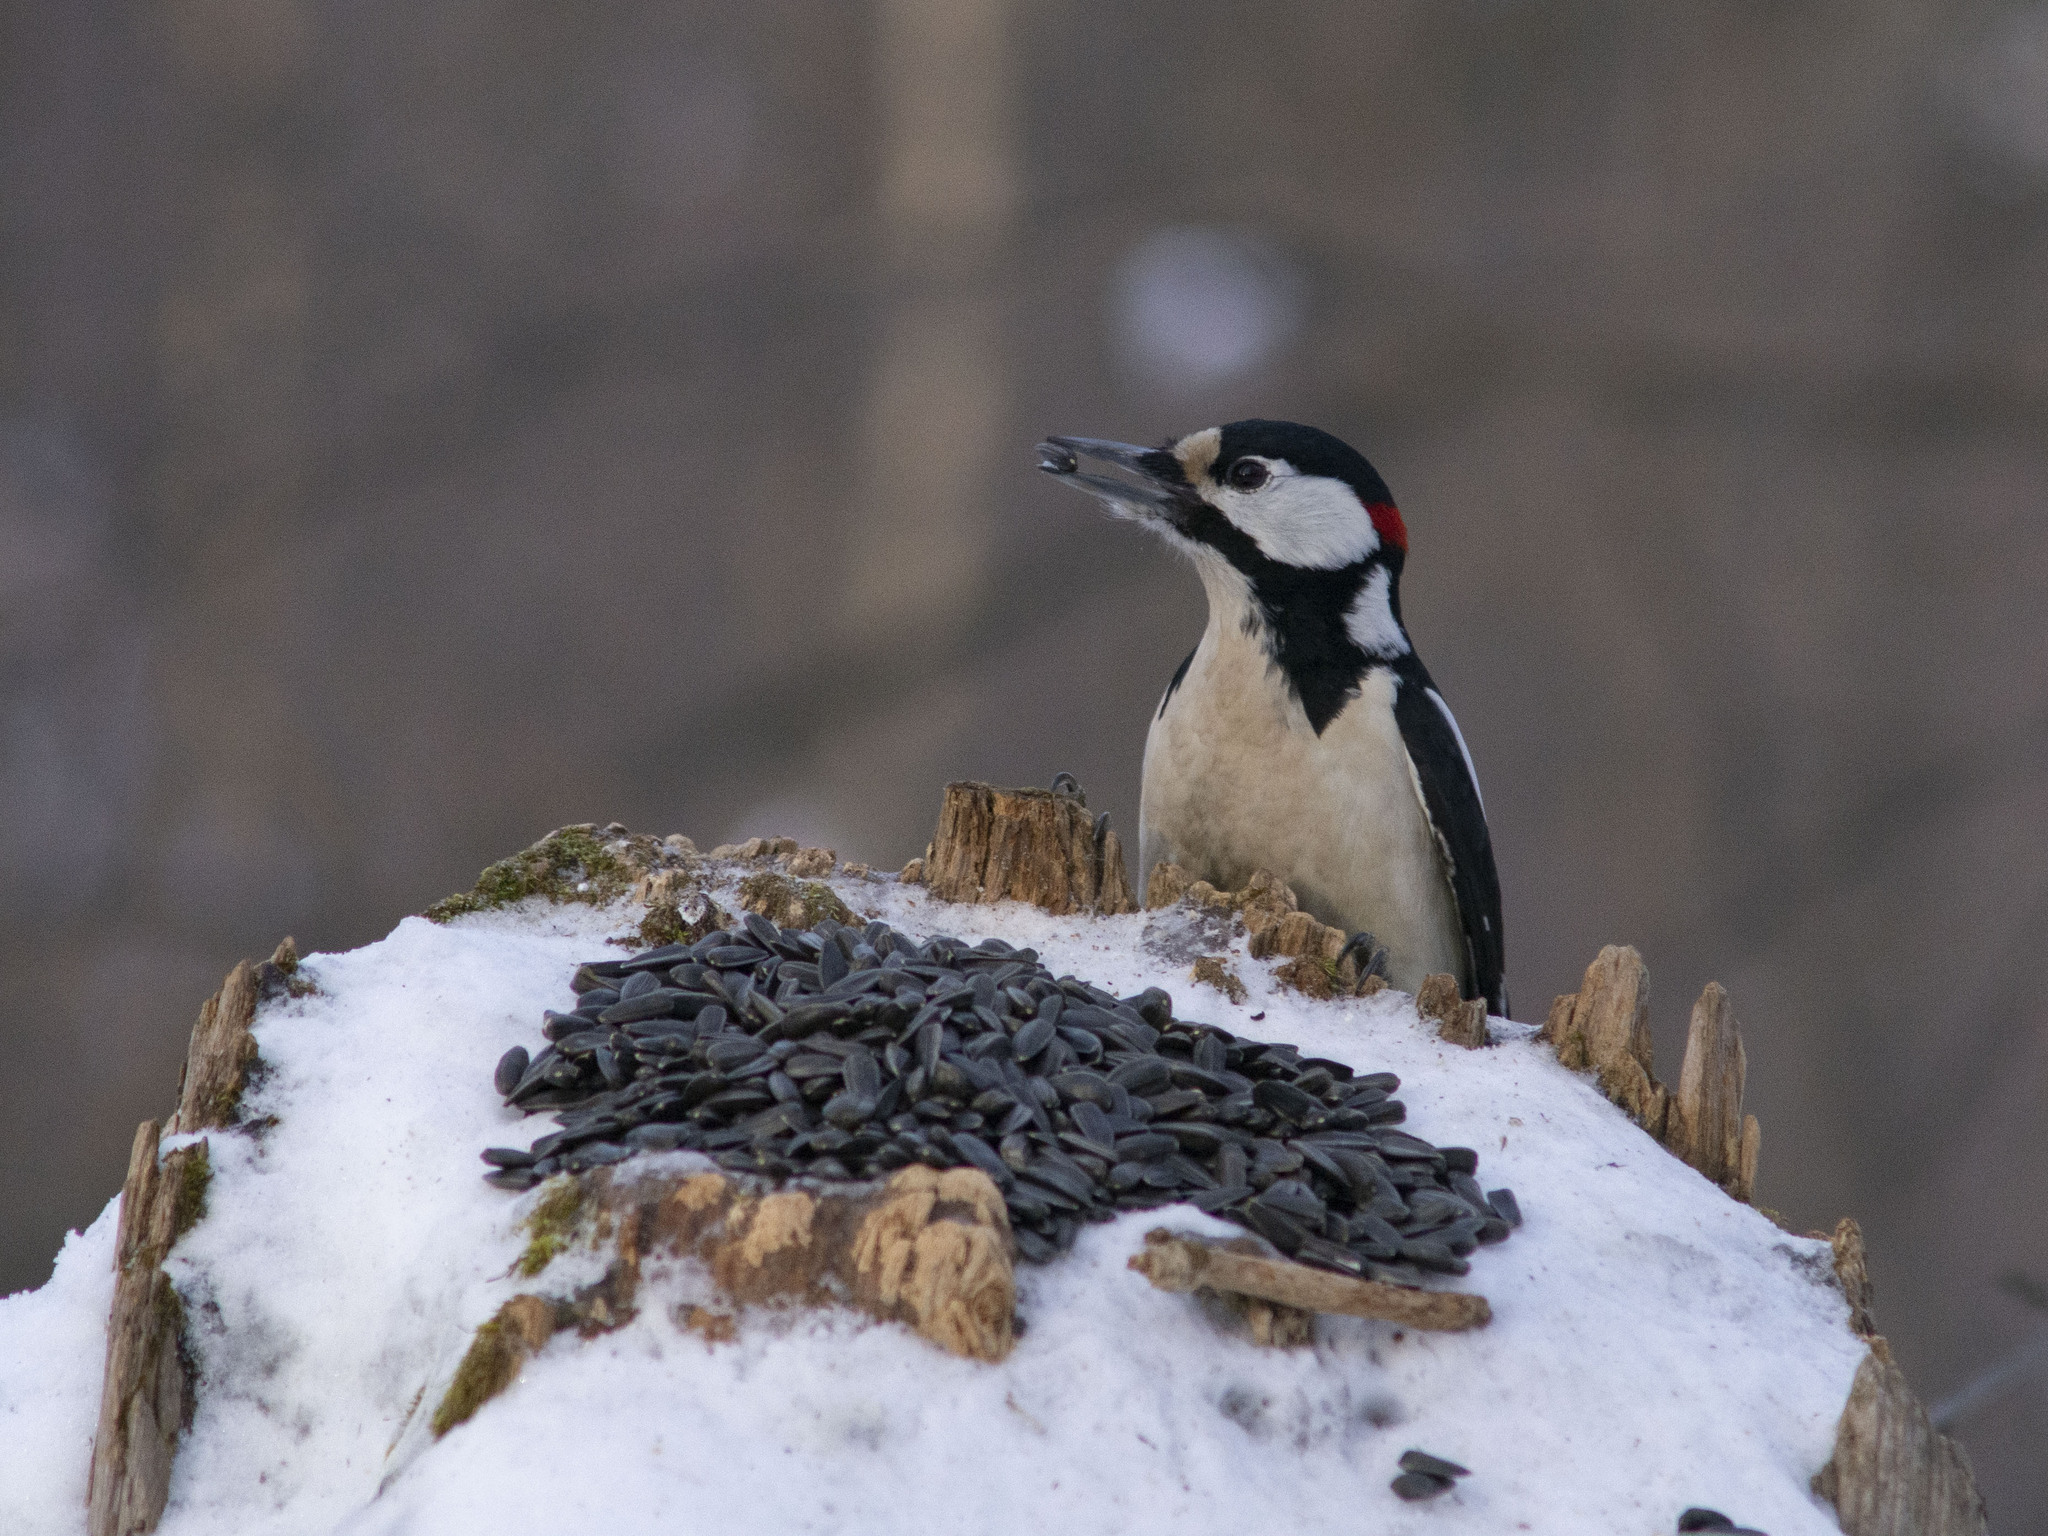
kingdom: Animalia
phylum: Chordata
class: Aves
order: Piciformes
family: Picidae
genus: Dendrocopos
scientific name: Dendrocopos major
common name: Great spotted woodpecker
